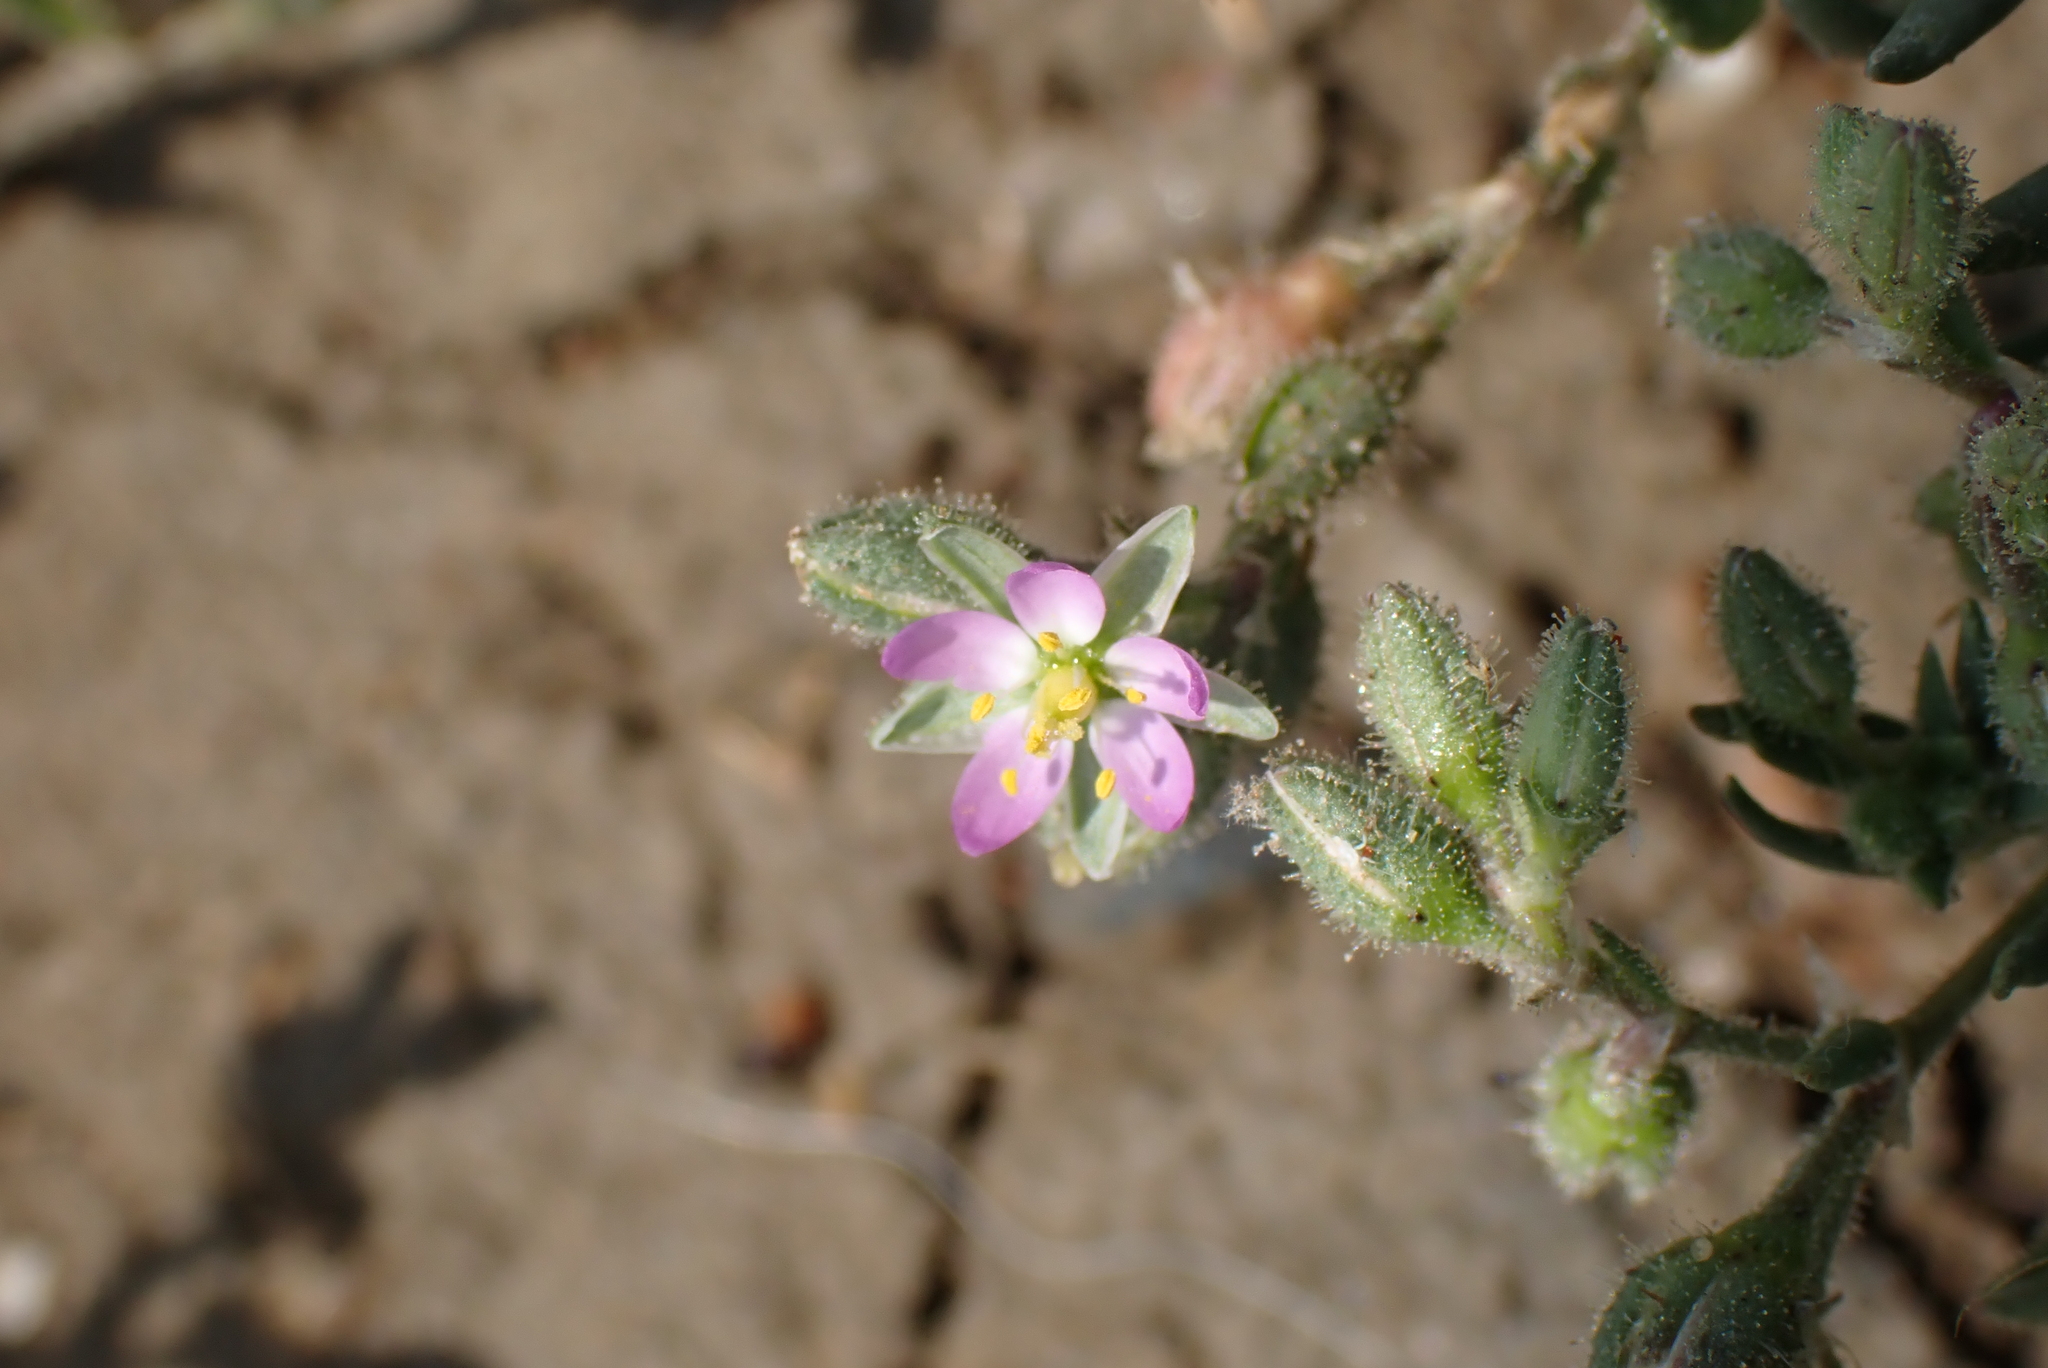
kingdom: Plantae
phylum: Tracheophyta
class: Magnoliopsida
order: Caryophyllales
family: Caryophyllaceae
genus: Spergularia
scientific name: Spergularia marina
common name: Lesser sea-spurrey
